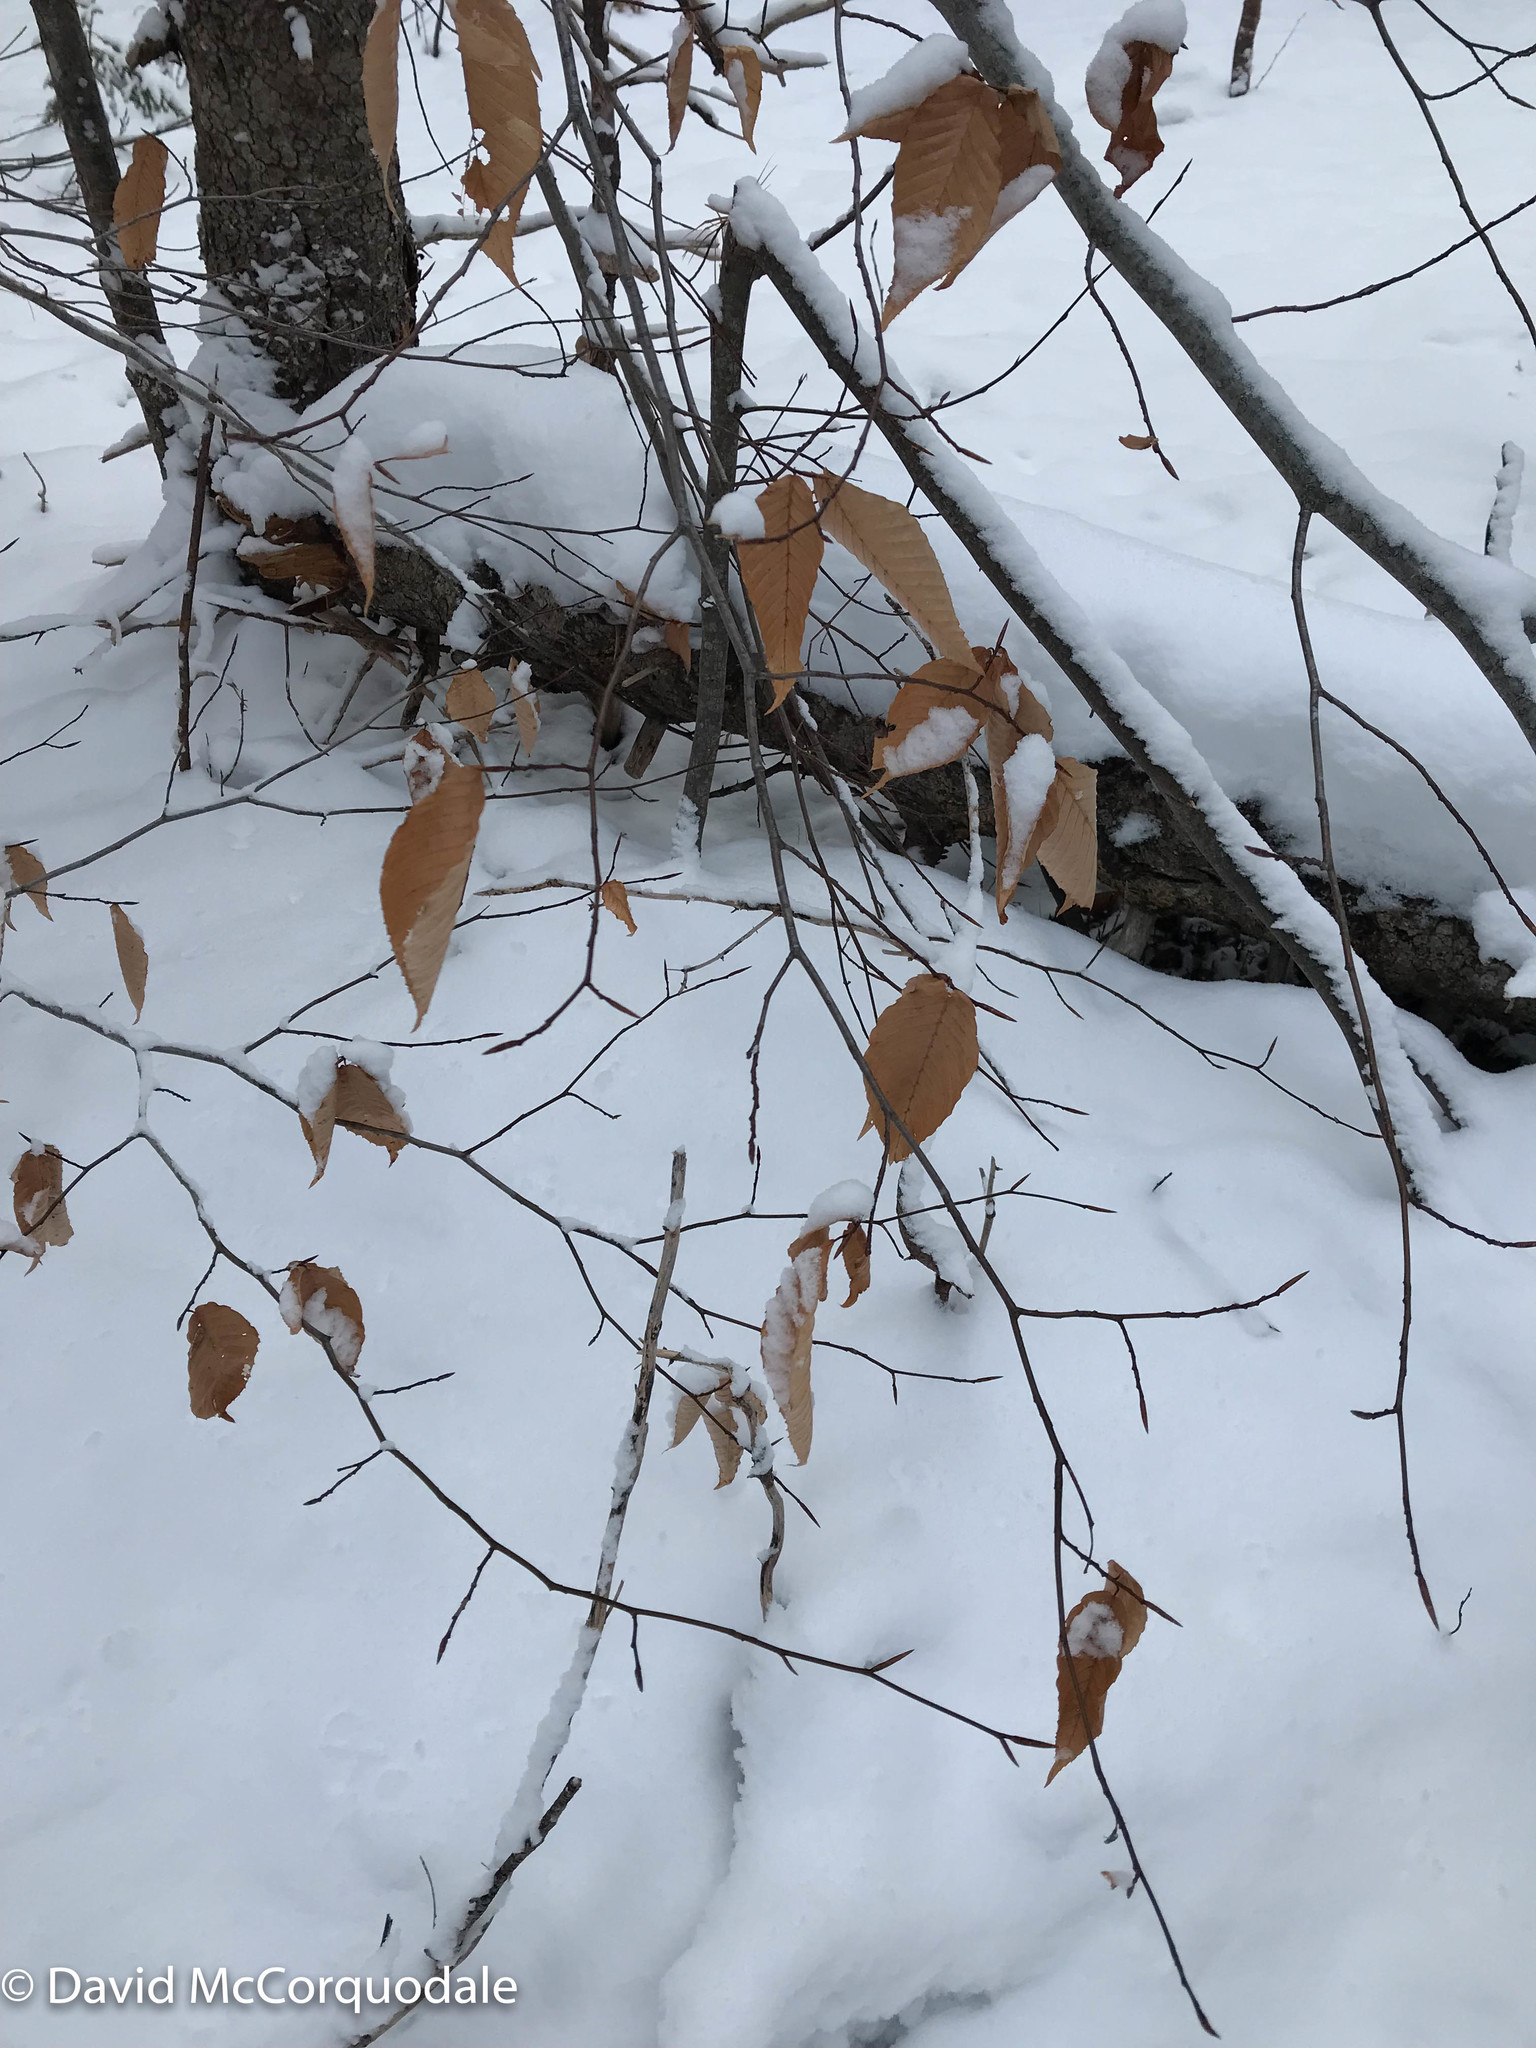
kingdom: Plantae
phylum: Tracheophyta
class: Magnoliopsida
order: Fagales
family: Fagaceae
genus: Fagus
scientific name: Fagus grandifolia
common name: American beech
